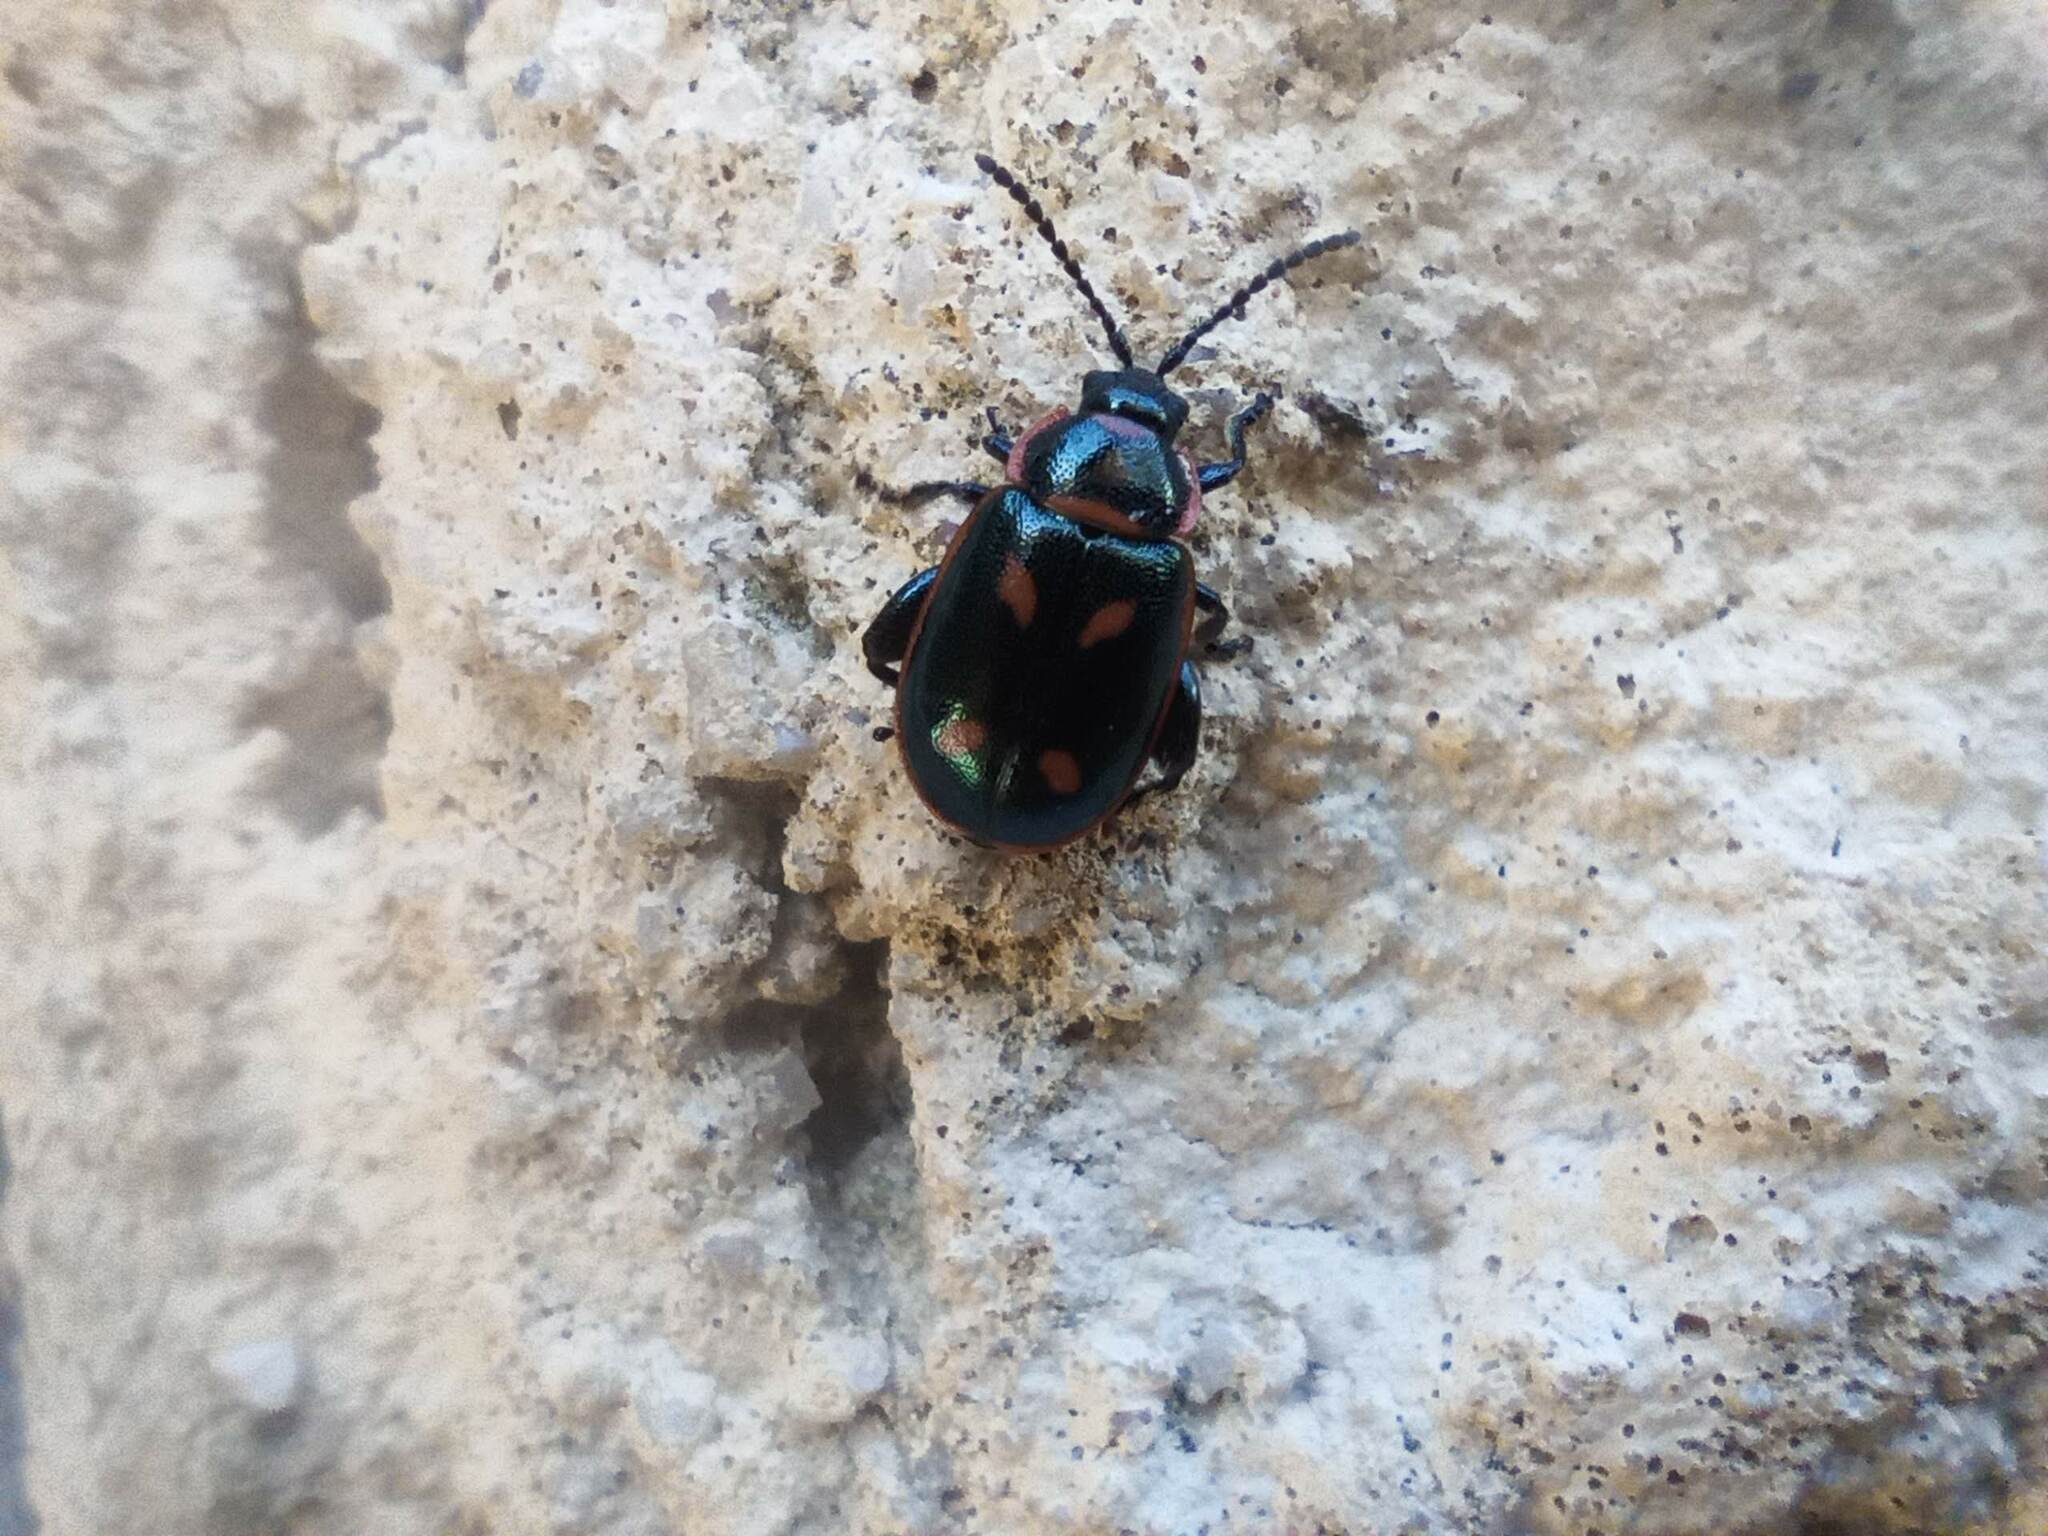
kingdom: Animalia
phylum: Arthropoda
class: Insecta
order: Coleoptera
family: Chrysomelidae
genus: Oedionychis
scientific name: Oedionychis cincta
